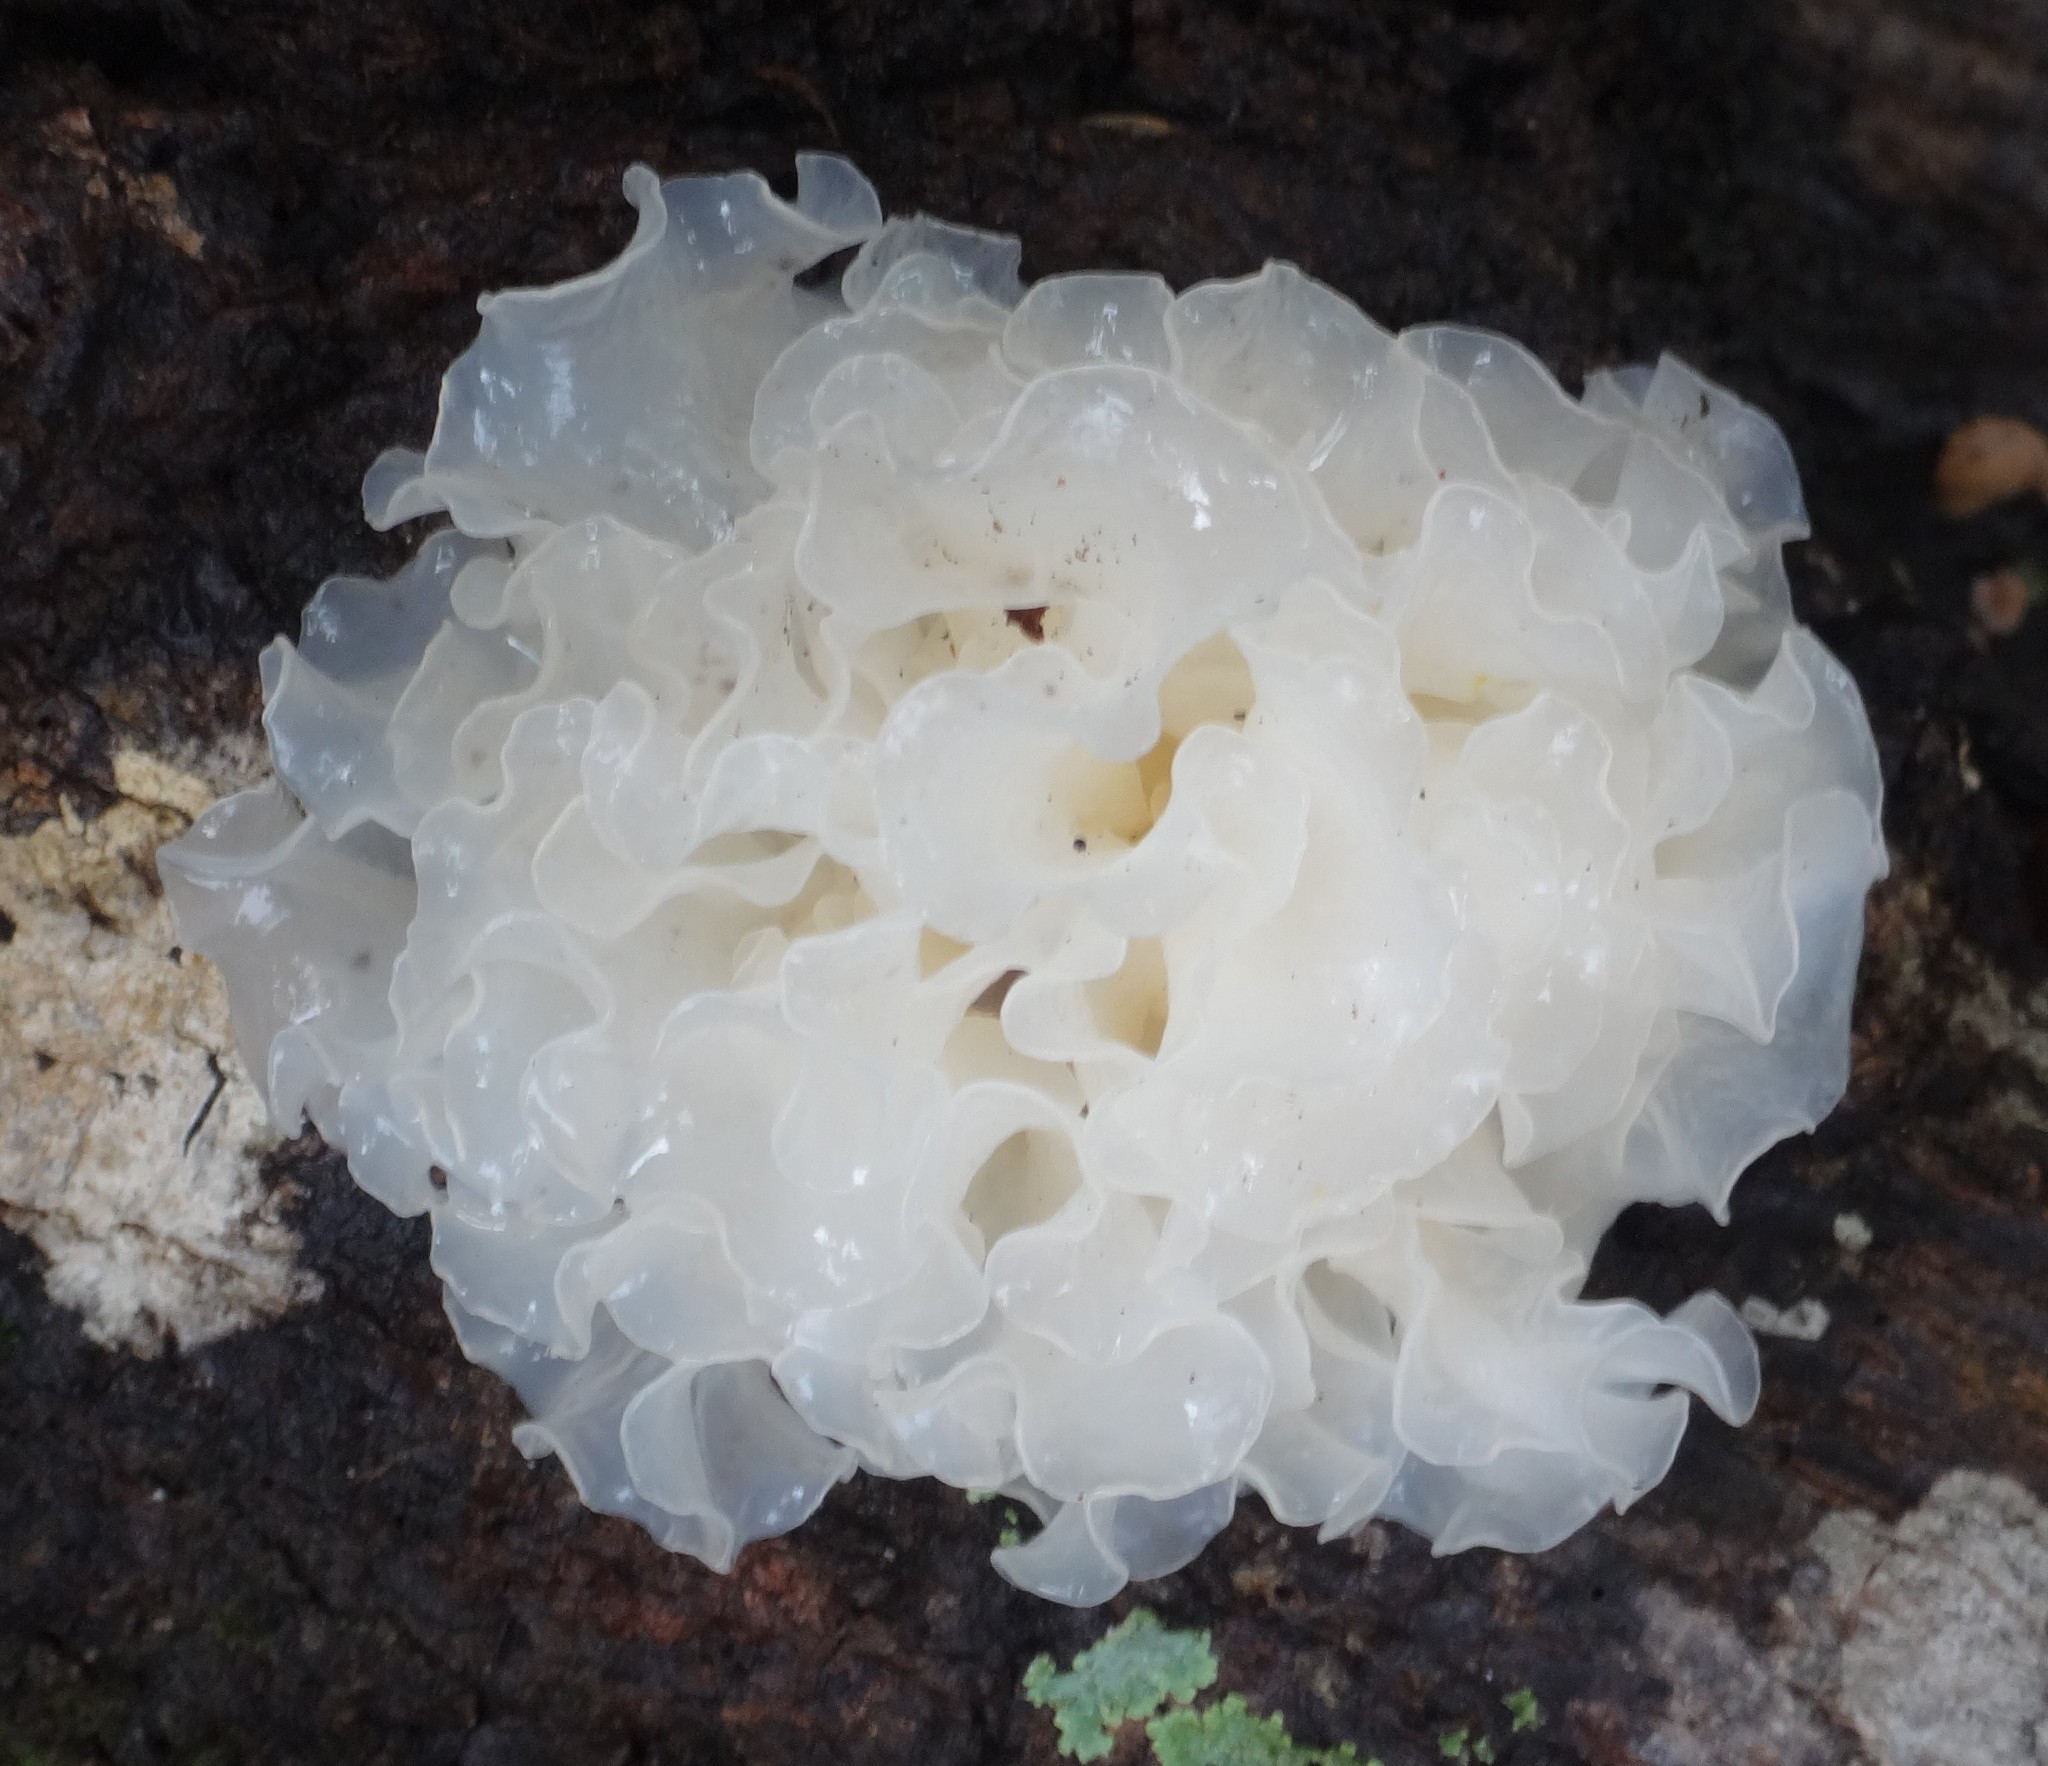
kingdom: Fungi
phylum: Basidiomycota
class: Tremellomycetes
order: Tremellales
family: Tremellaceae
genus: Tremella
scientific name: Tremella fuciformis
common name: Snow fungus
